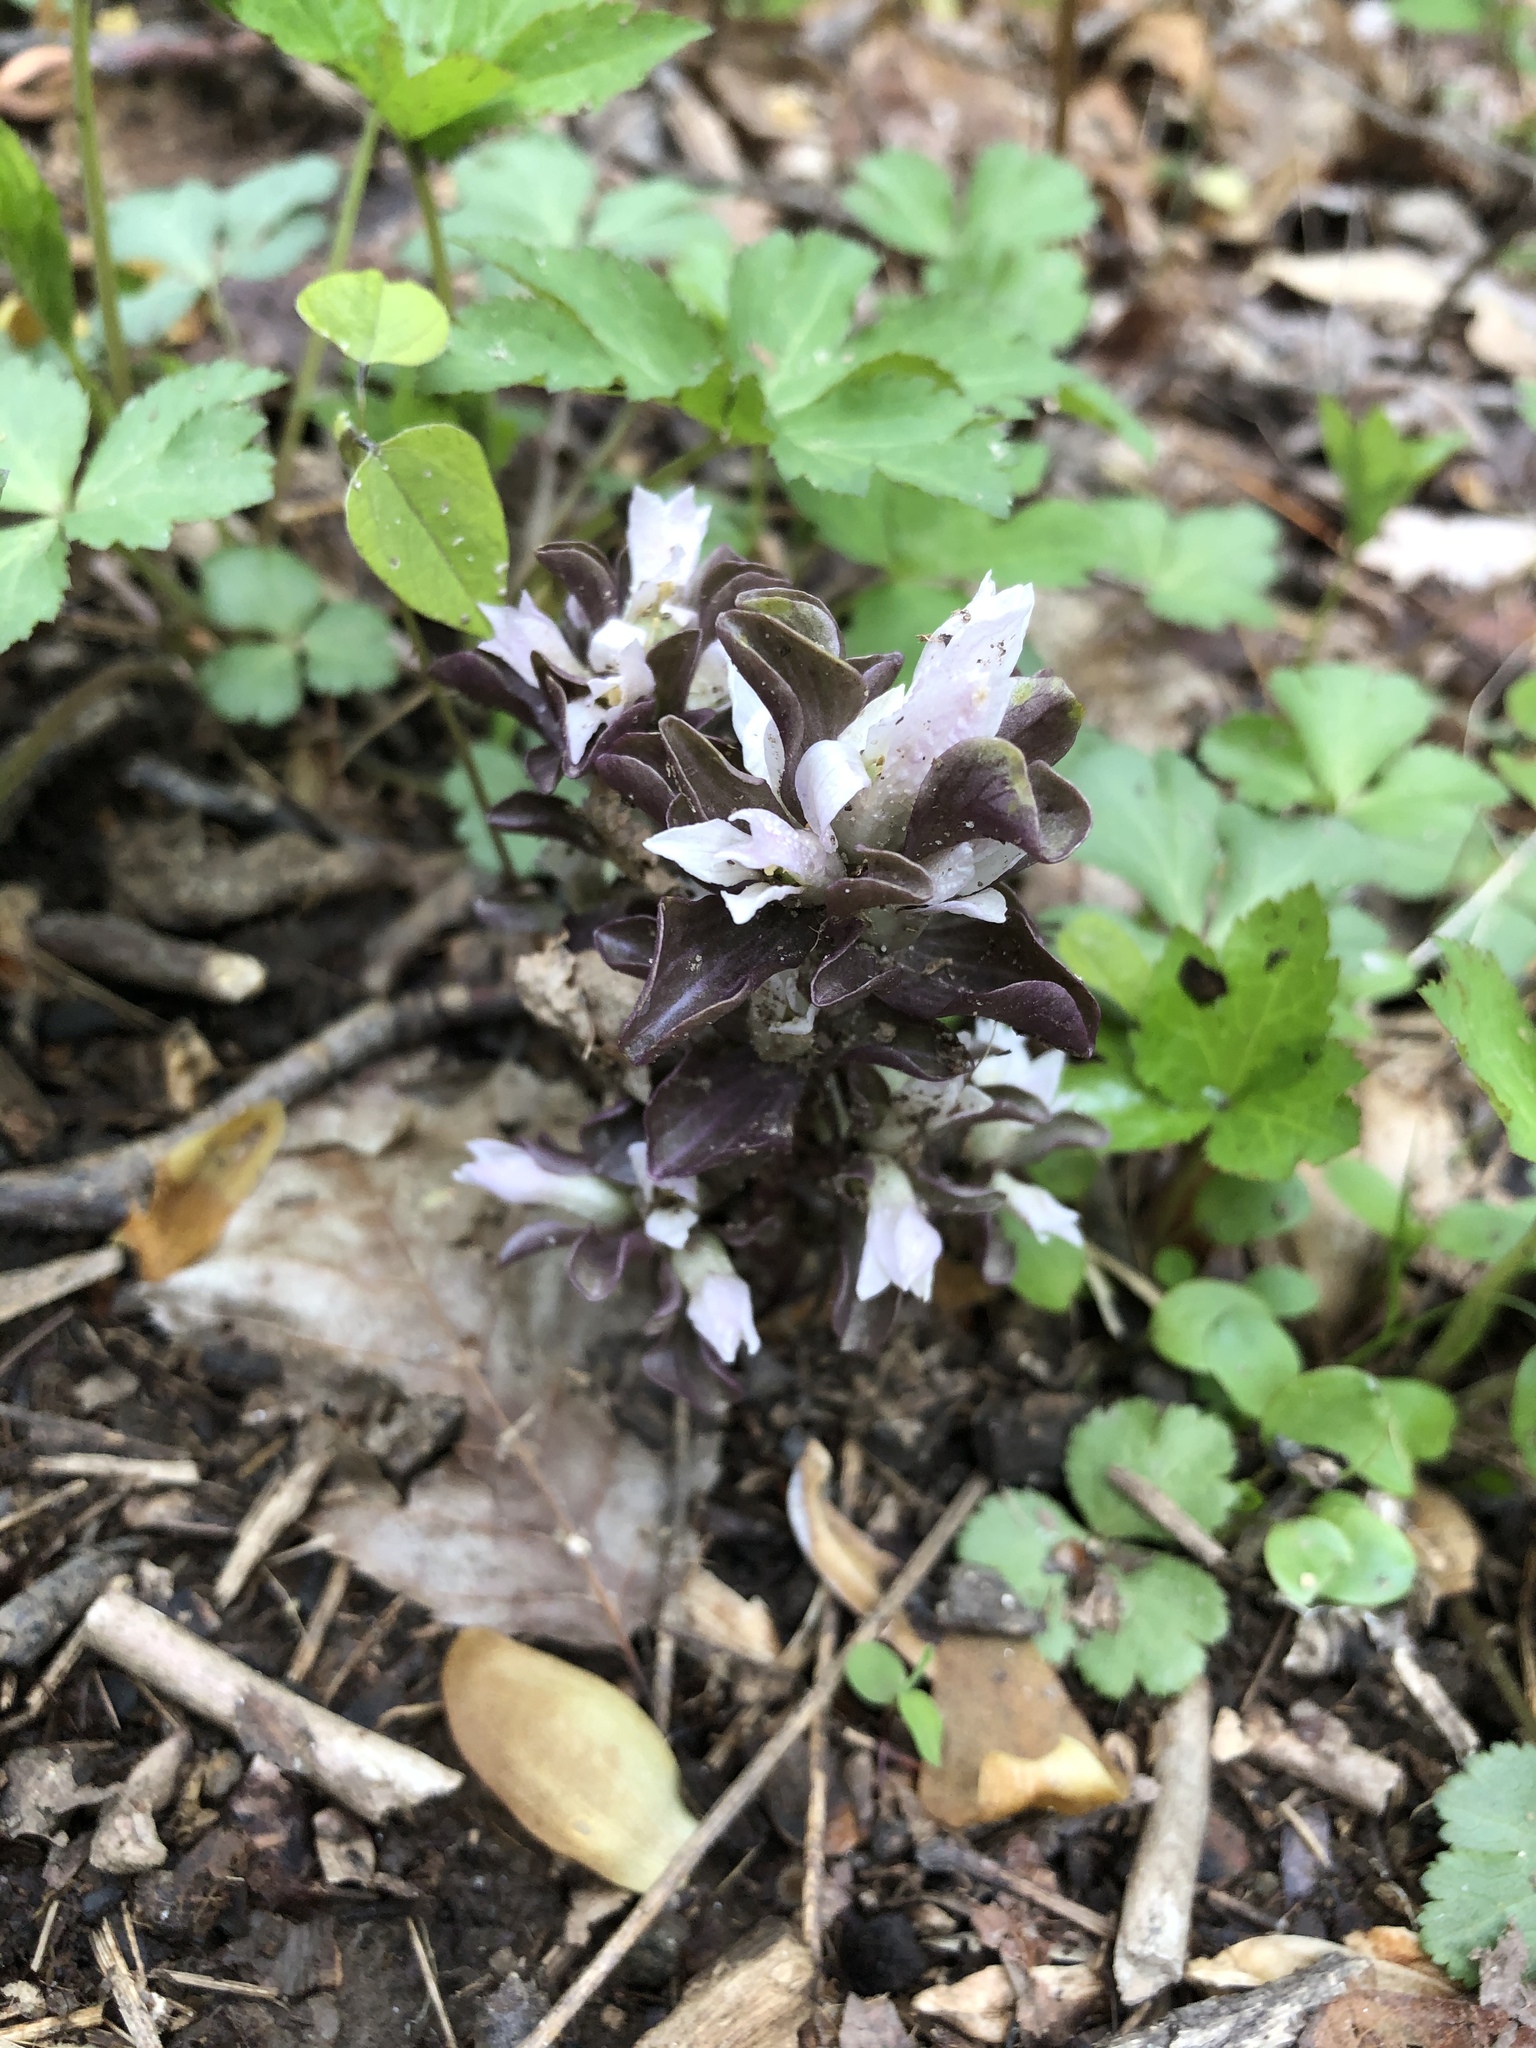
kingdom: Plantae
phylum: Tracheophyta
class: Magnoliopsida
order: Gentianales
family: Gentianaceae
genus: Obolaria
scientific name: Obolaria virginica
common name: Pennywort
